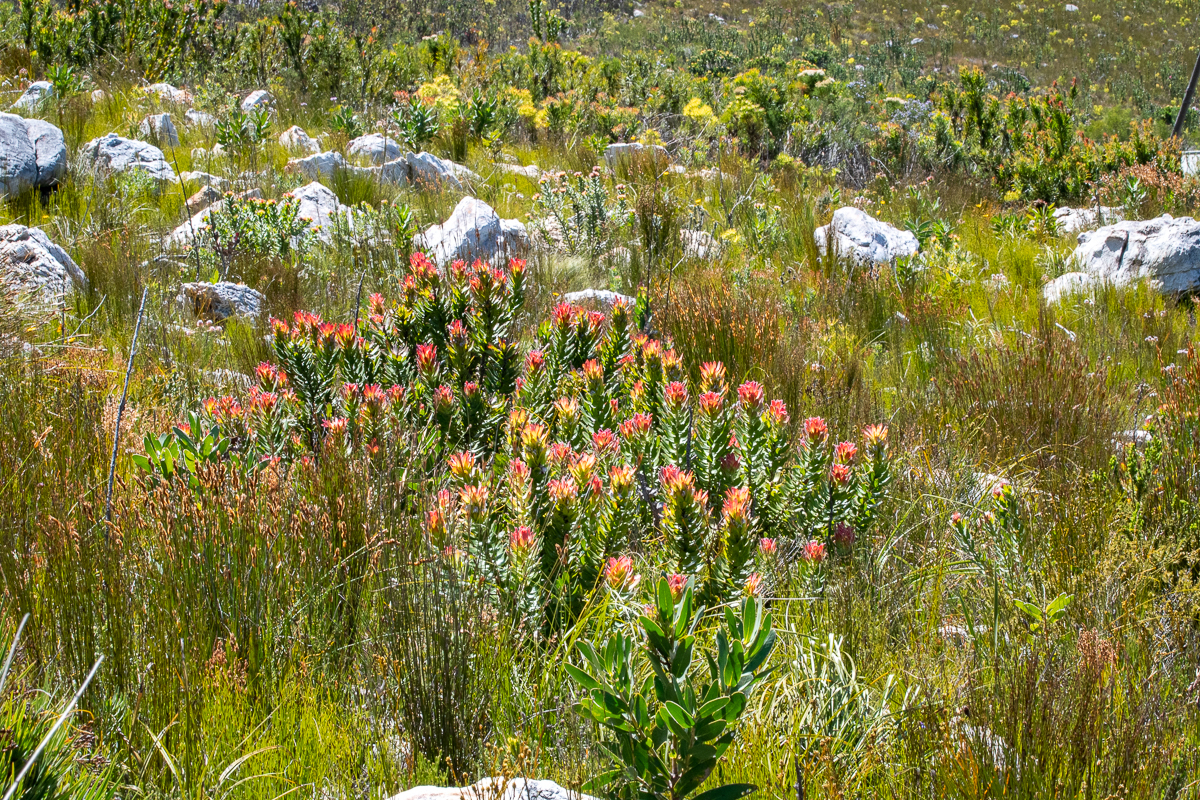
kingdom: Plantae
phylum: Tracheophyta
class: Magnoliopsida
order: Proteales
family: Proteaceae
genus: Mimetes
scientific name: Mimetes cucullatus
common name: Common pagoda
